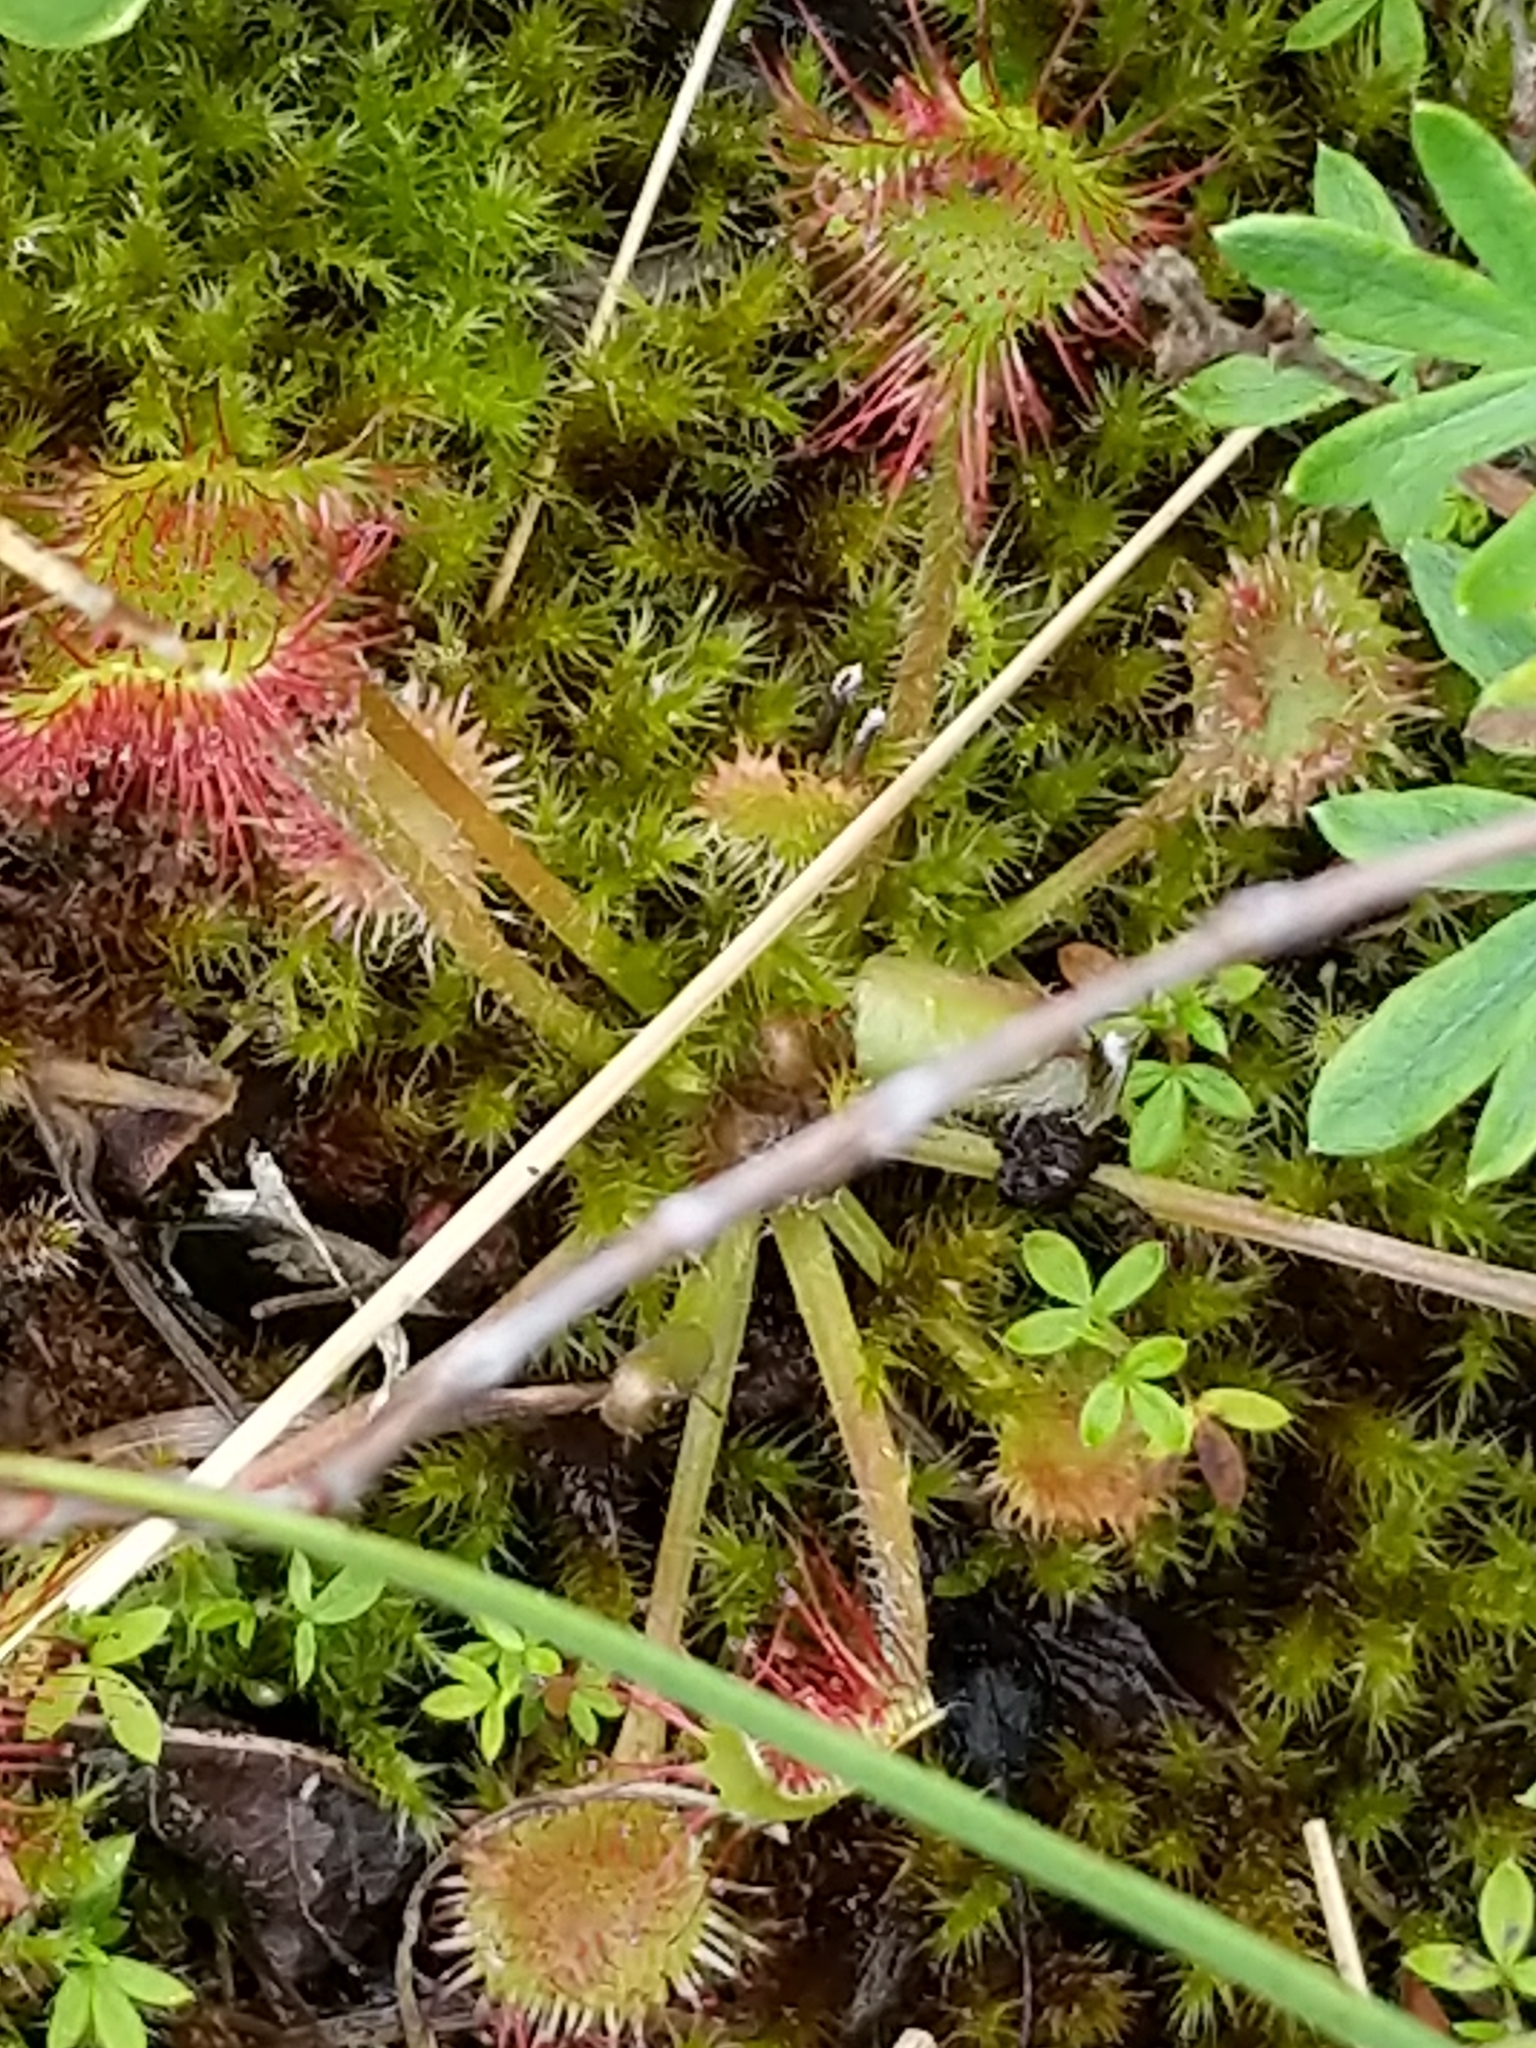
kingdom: Plantae
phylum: Tracheophyta
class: Magnoliopsida
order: Caryophyllales
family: Droseraceae
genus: Drosera
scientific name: Drosera rotundifolia
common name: Round-leaved sundew
